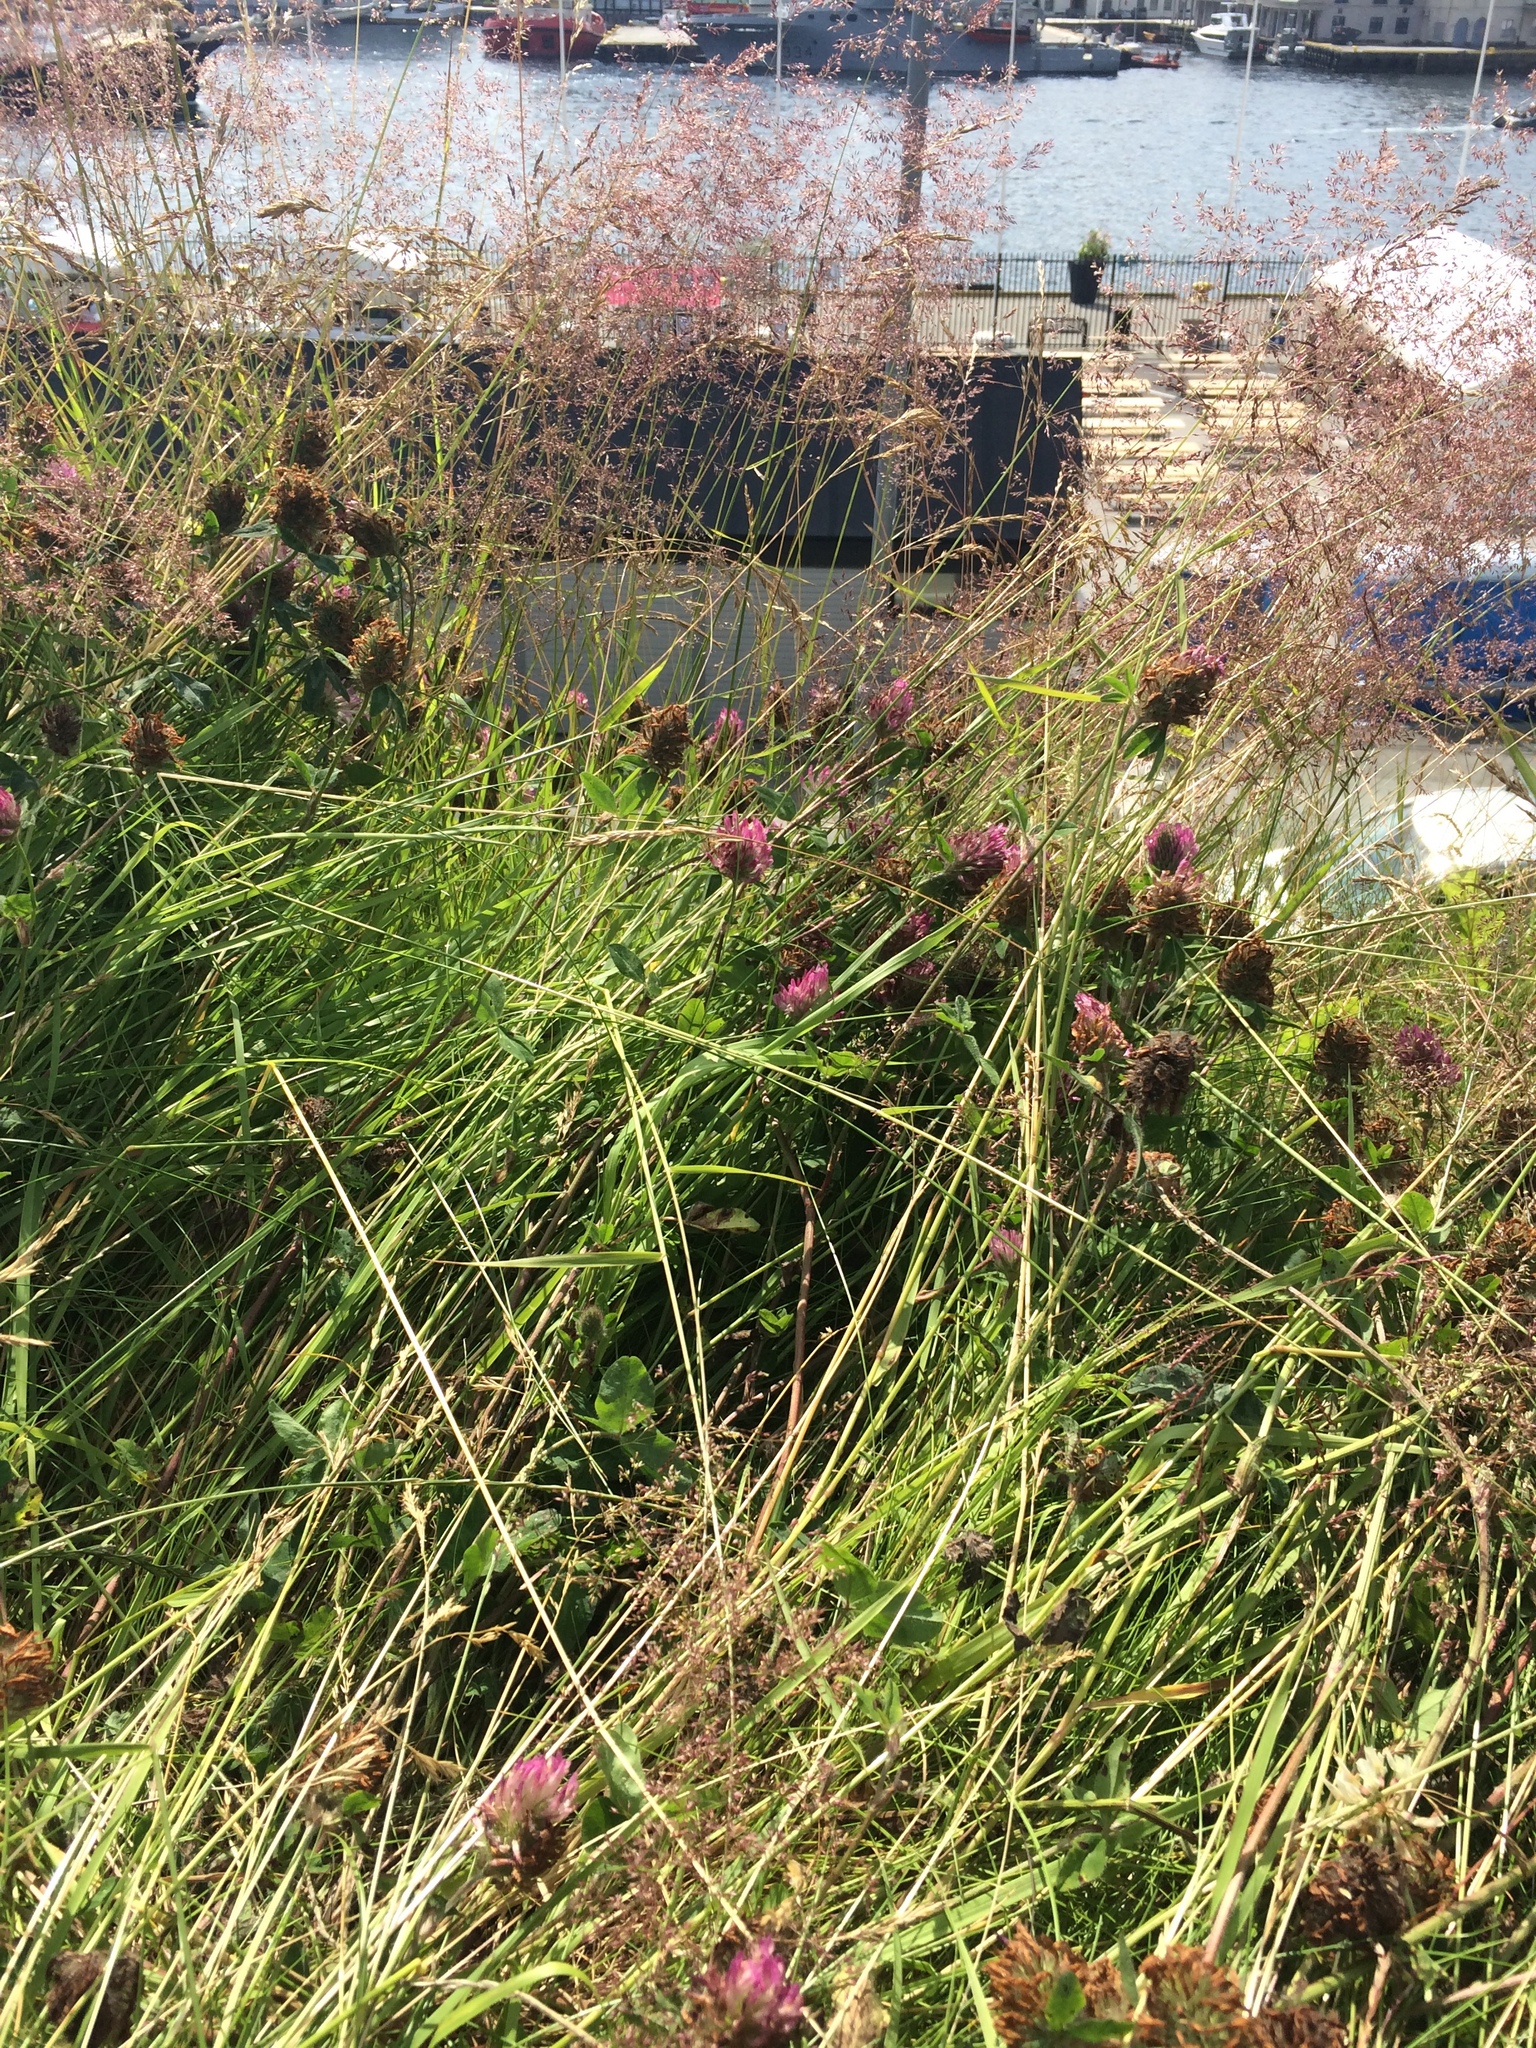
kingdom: Plantae
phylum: Tracheophyta
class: Magnoliopsida
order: Fabales
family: Fabaceae
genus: Trifolium
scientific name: Trifolium pratense
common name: Red clover
